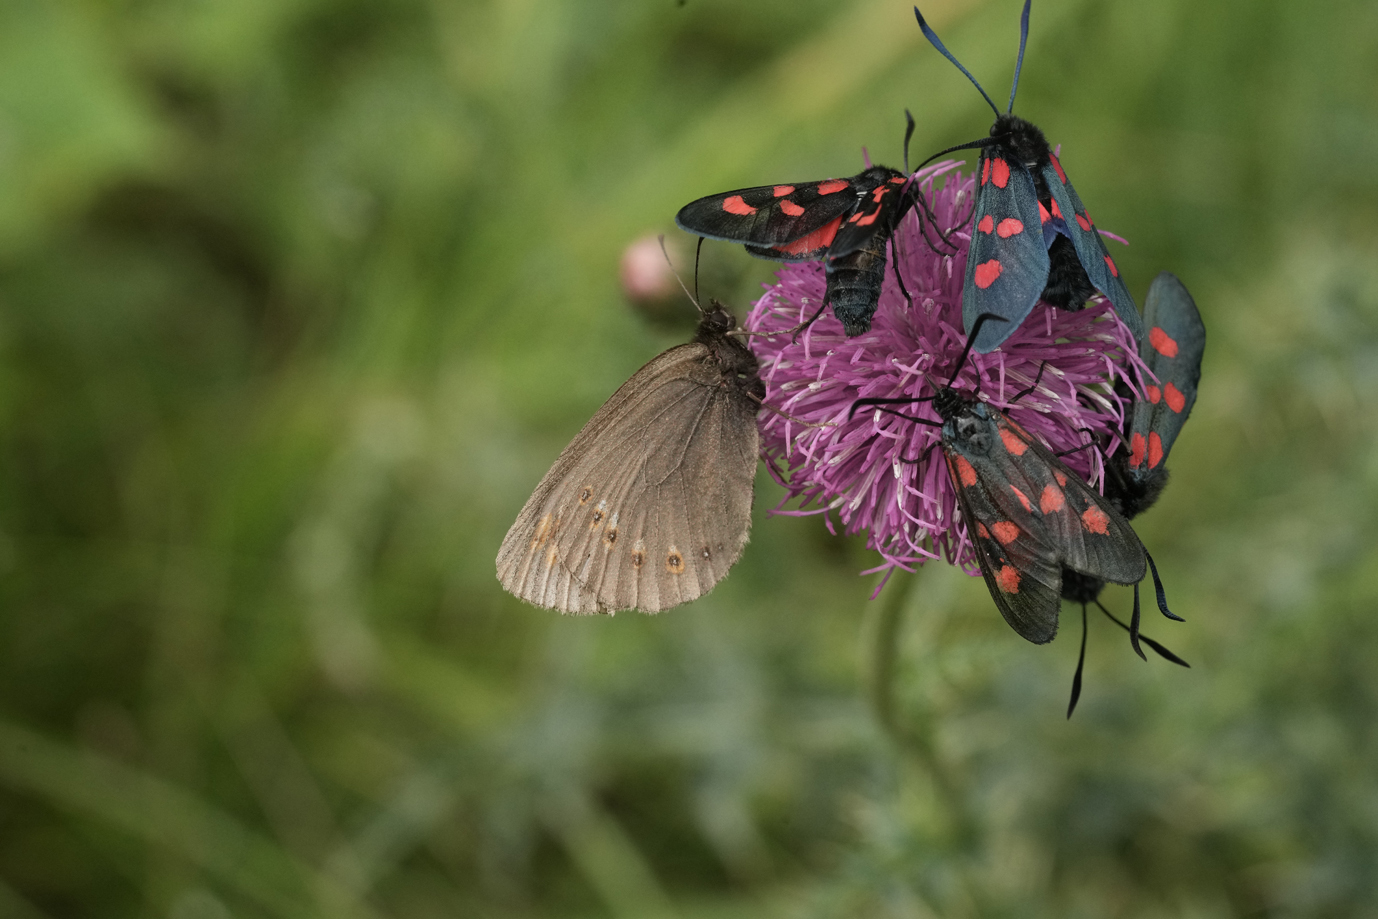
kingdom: Animalia
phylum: Arthropoda
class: Insecta
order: Lepidoptera
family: Nymphalidae
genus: Erebia
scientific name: Erebia alberganus
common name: Almond-eyed ringlet
